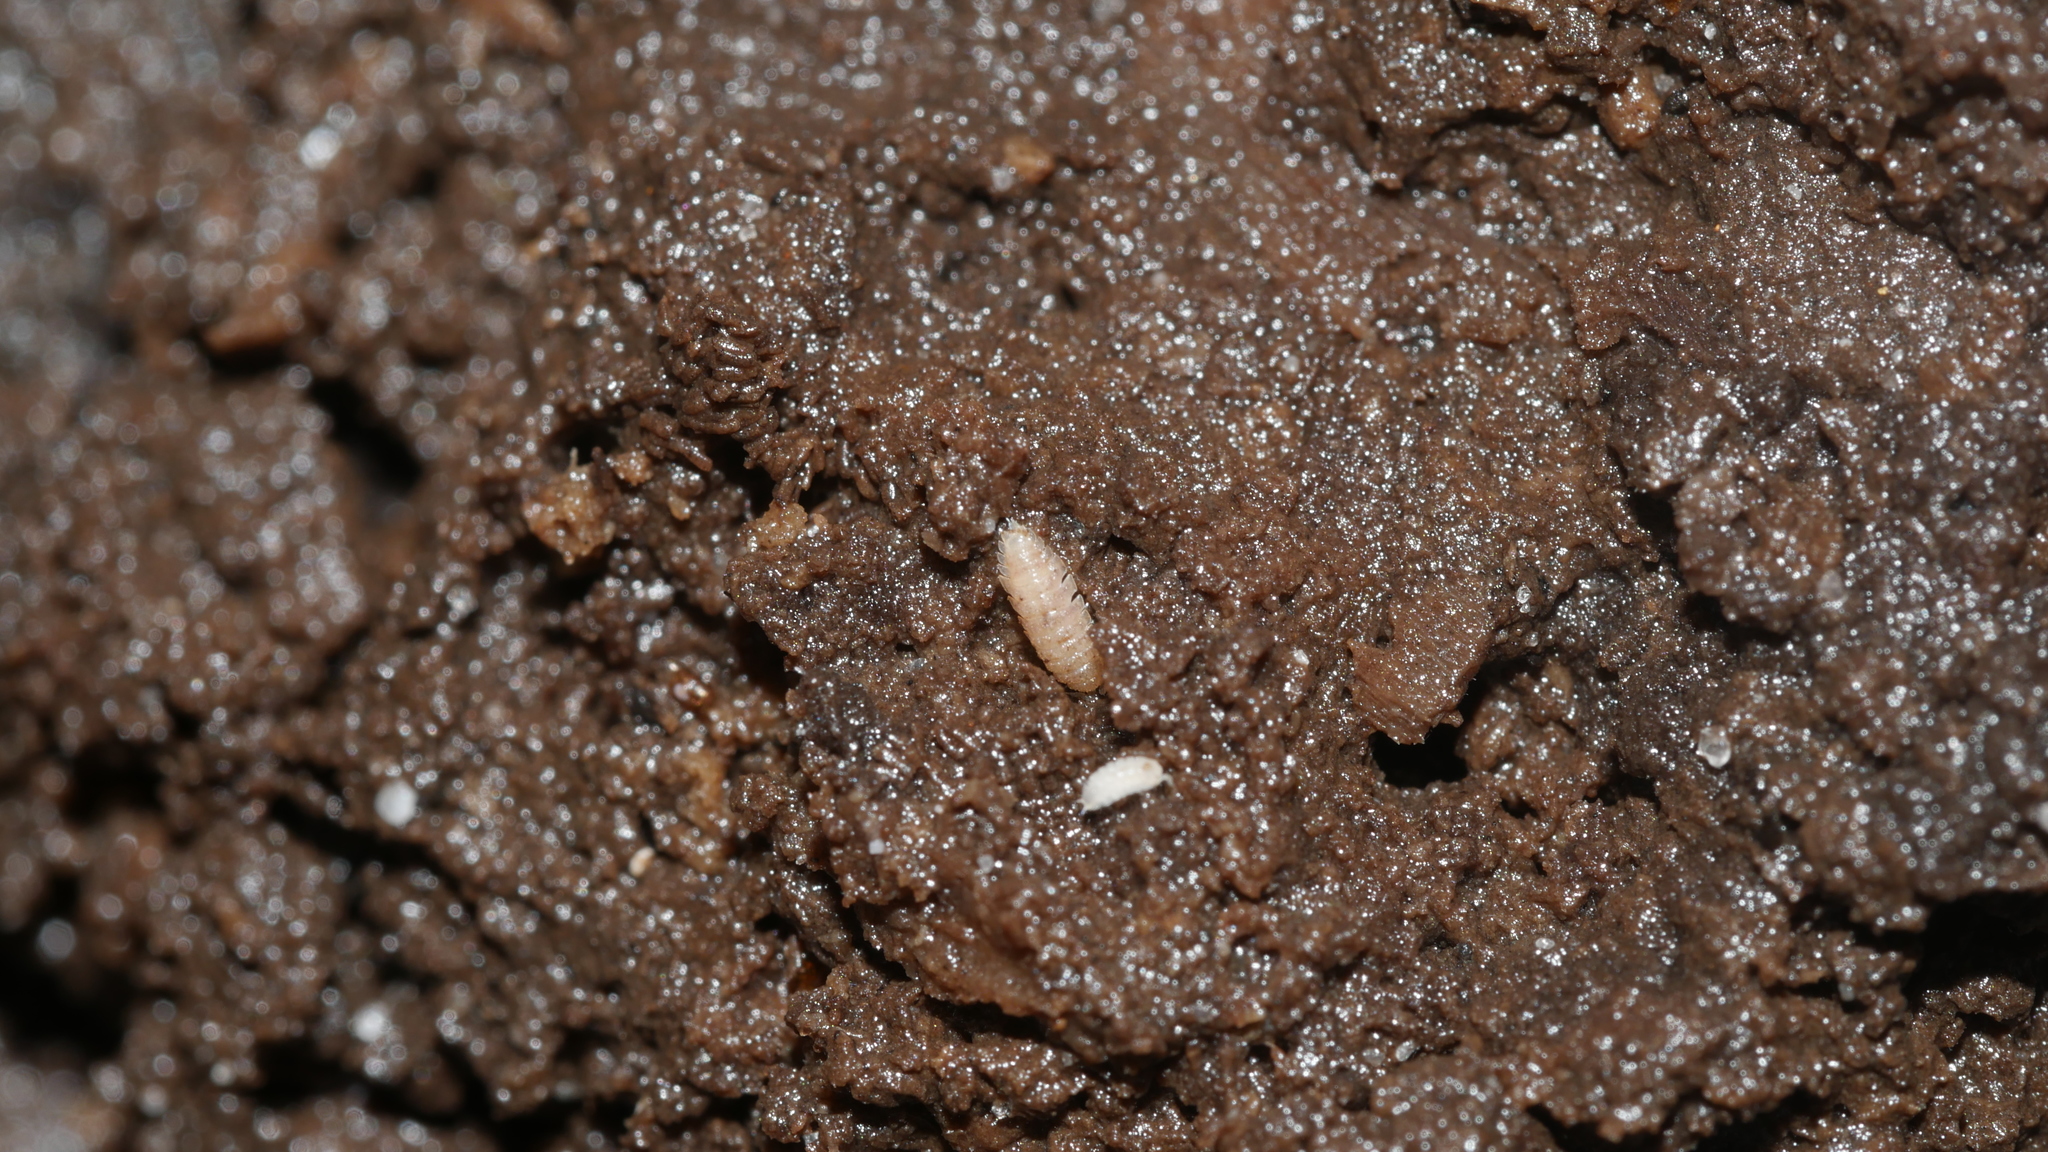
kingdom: Animalia
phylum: Arthropoda
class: Malacostraca
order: Isopoda
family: Trichoniscidae
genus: Haplophthalmus
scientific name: Haplophthalmus danicus
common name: Pillbug
